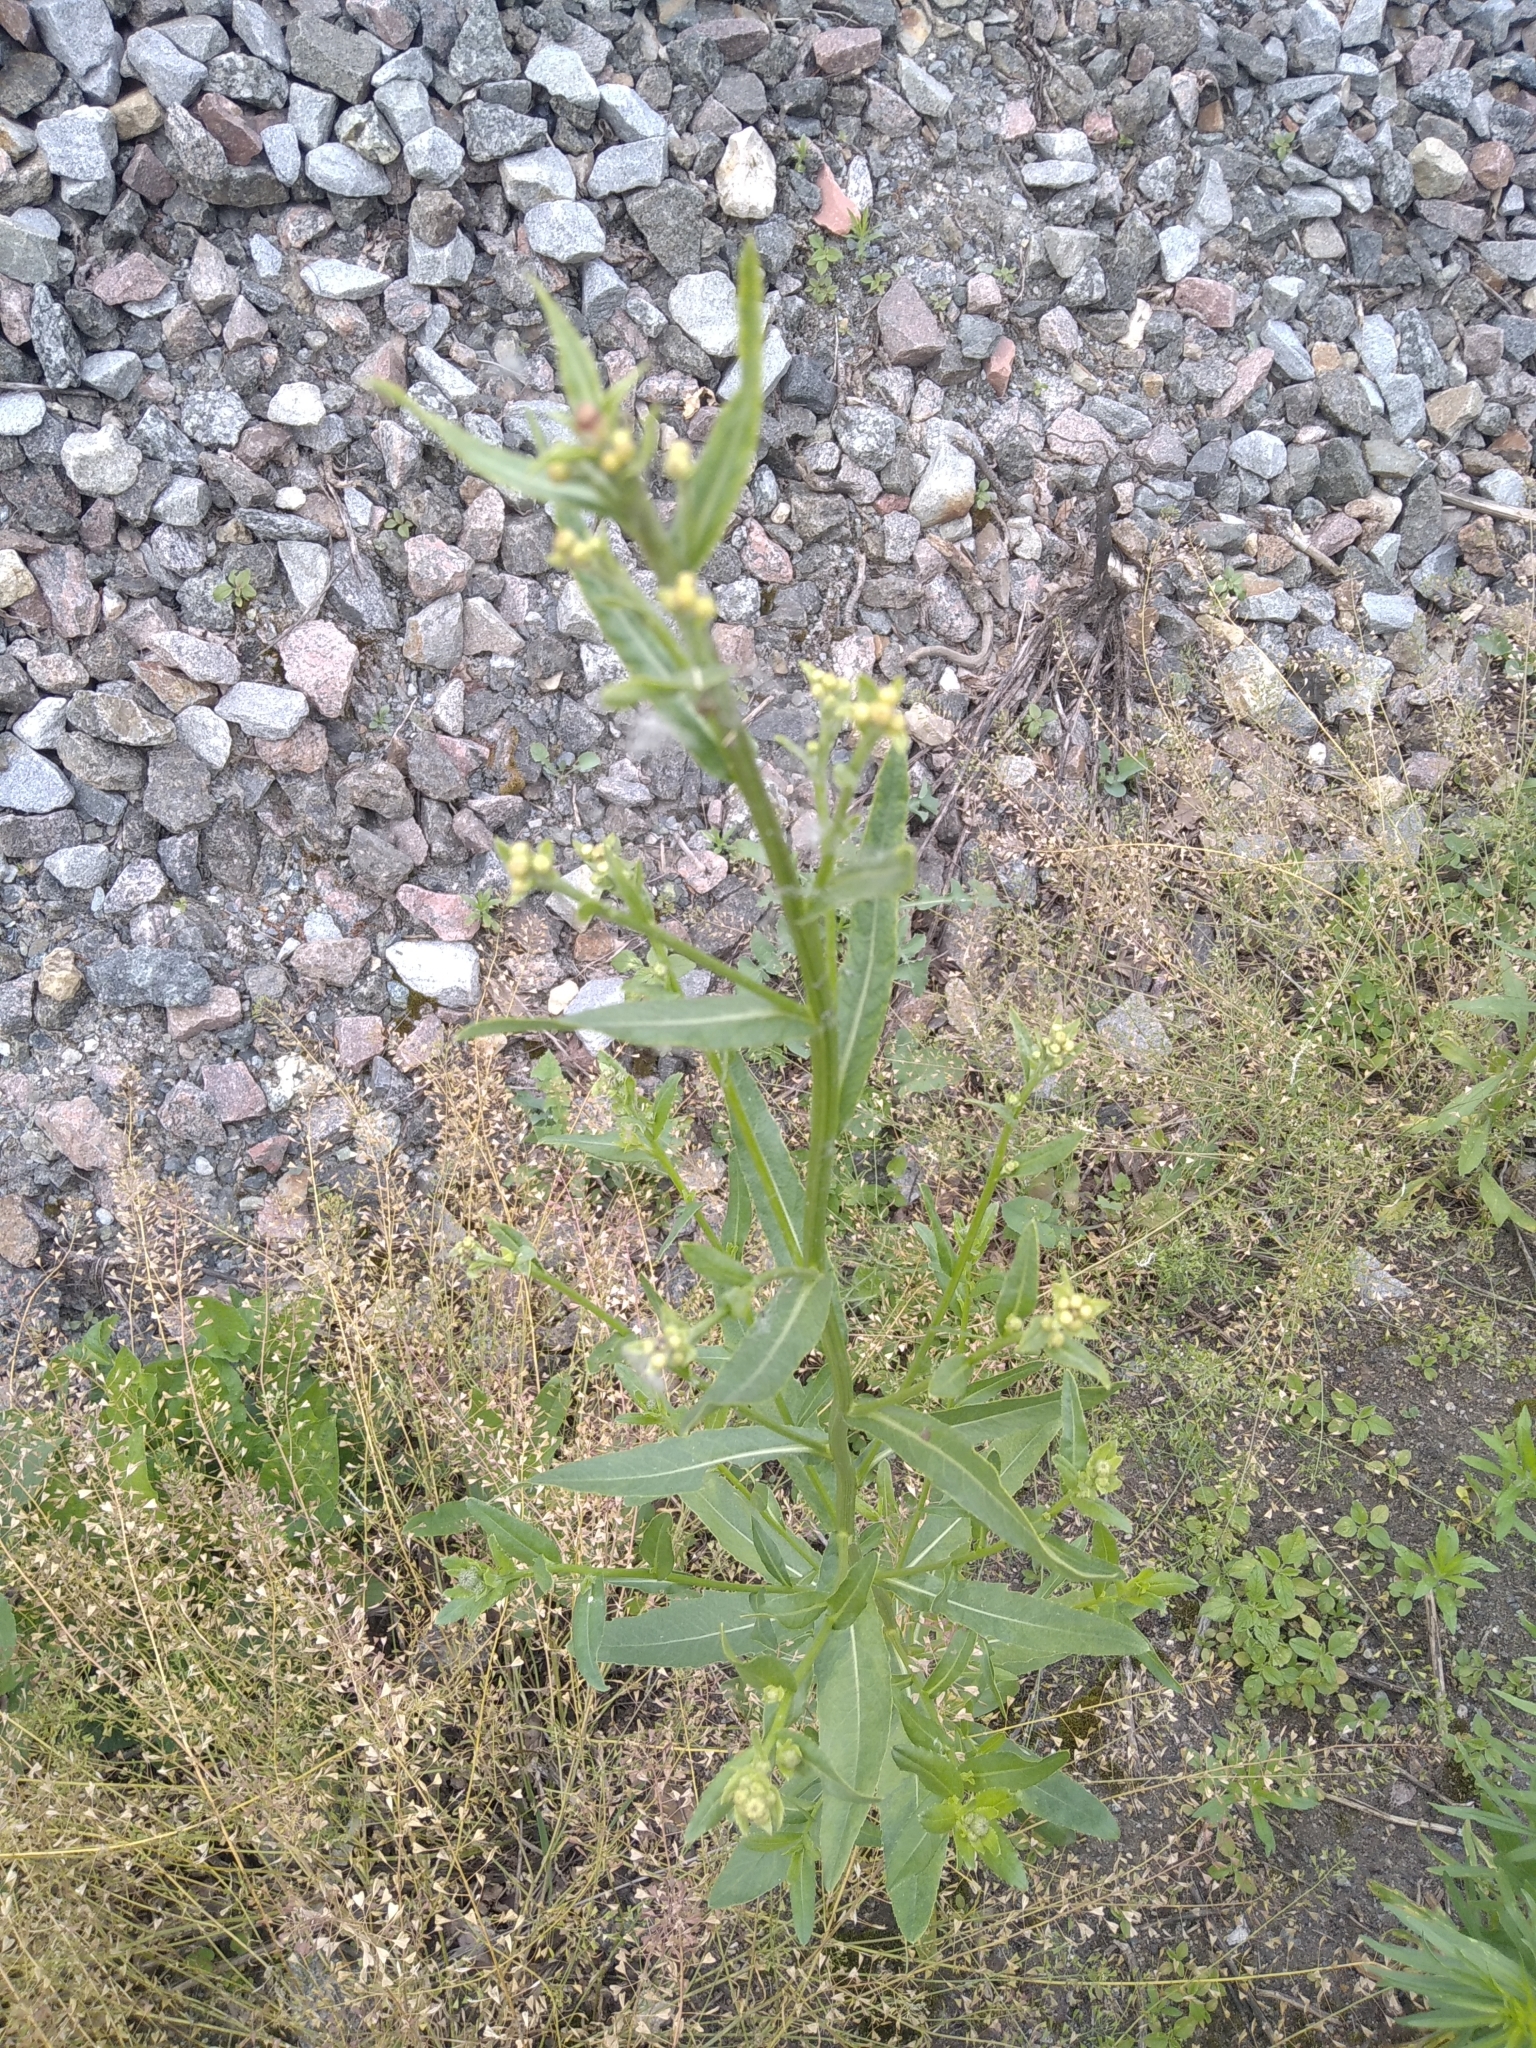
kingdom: Plantae
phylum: Tracheophyta
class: Magnoliopsida
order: Brassicales
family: Brassicaceae
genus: Erysimum
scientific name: Erysimum cheiranthoides
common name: Treacle mustard
